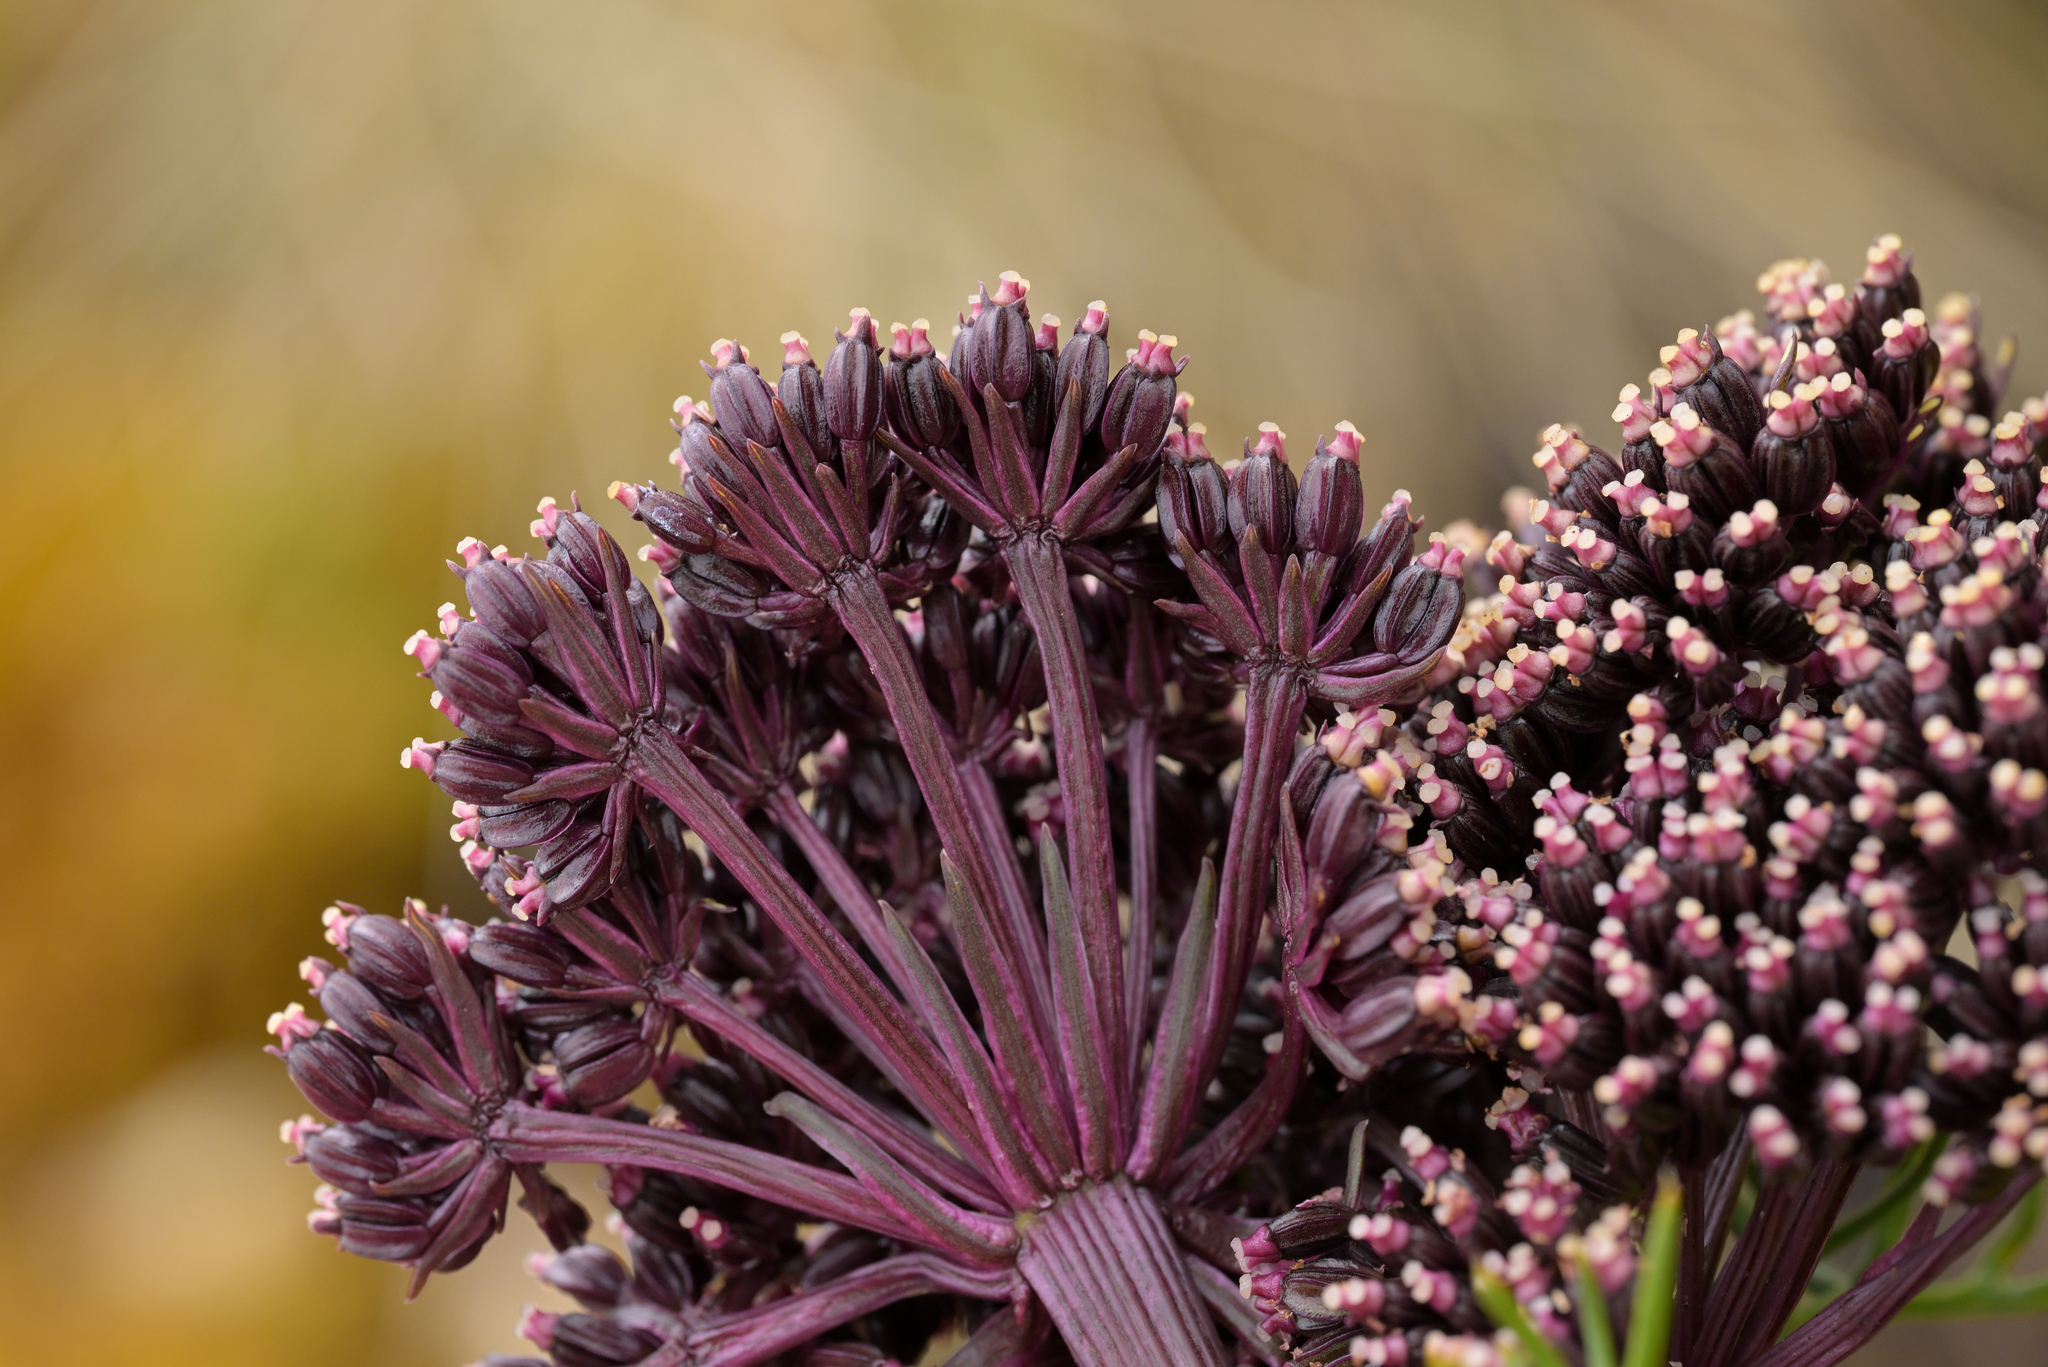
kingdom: Plantae
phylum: Tracheophyta
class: Magnoliopsida
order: Apiales
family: Apiaceae
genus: Anisotome
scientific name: Anisotome antipoda
